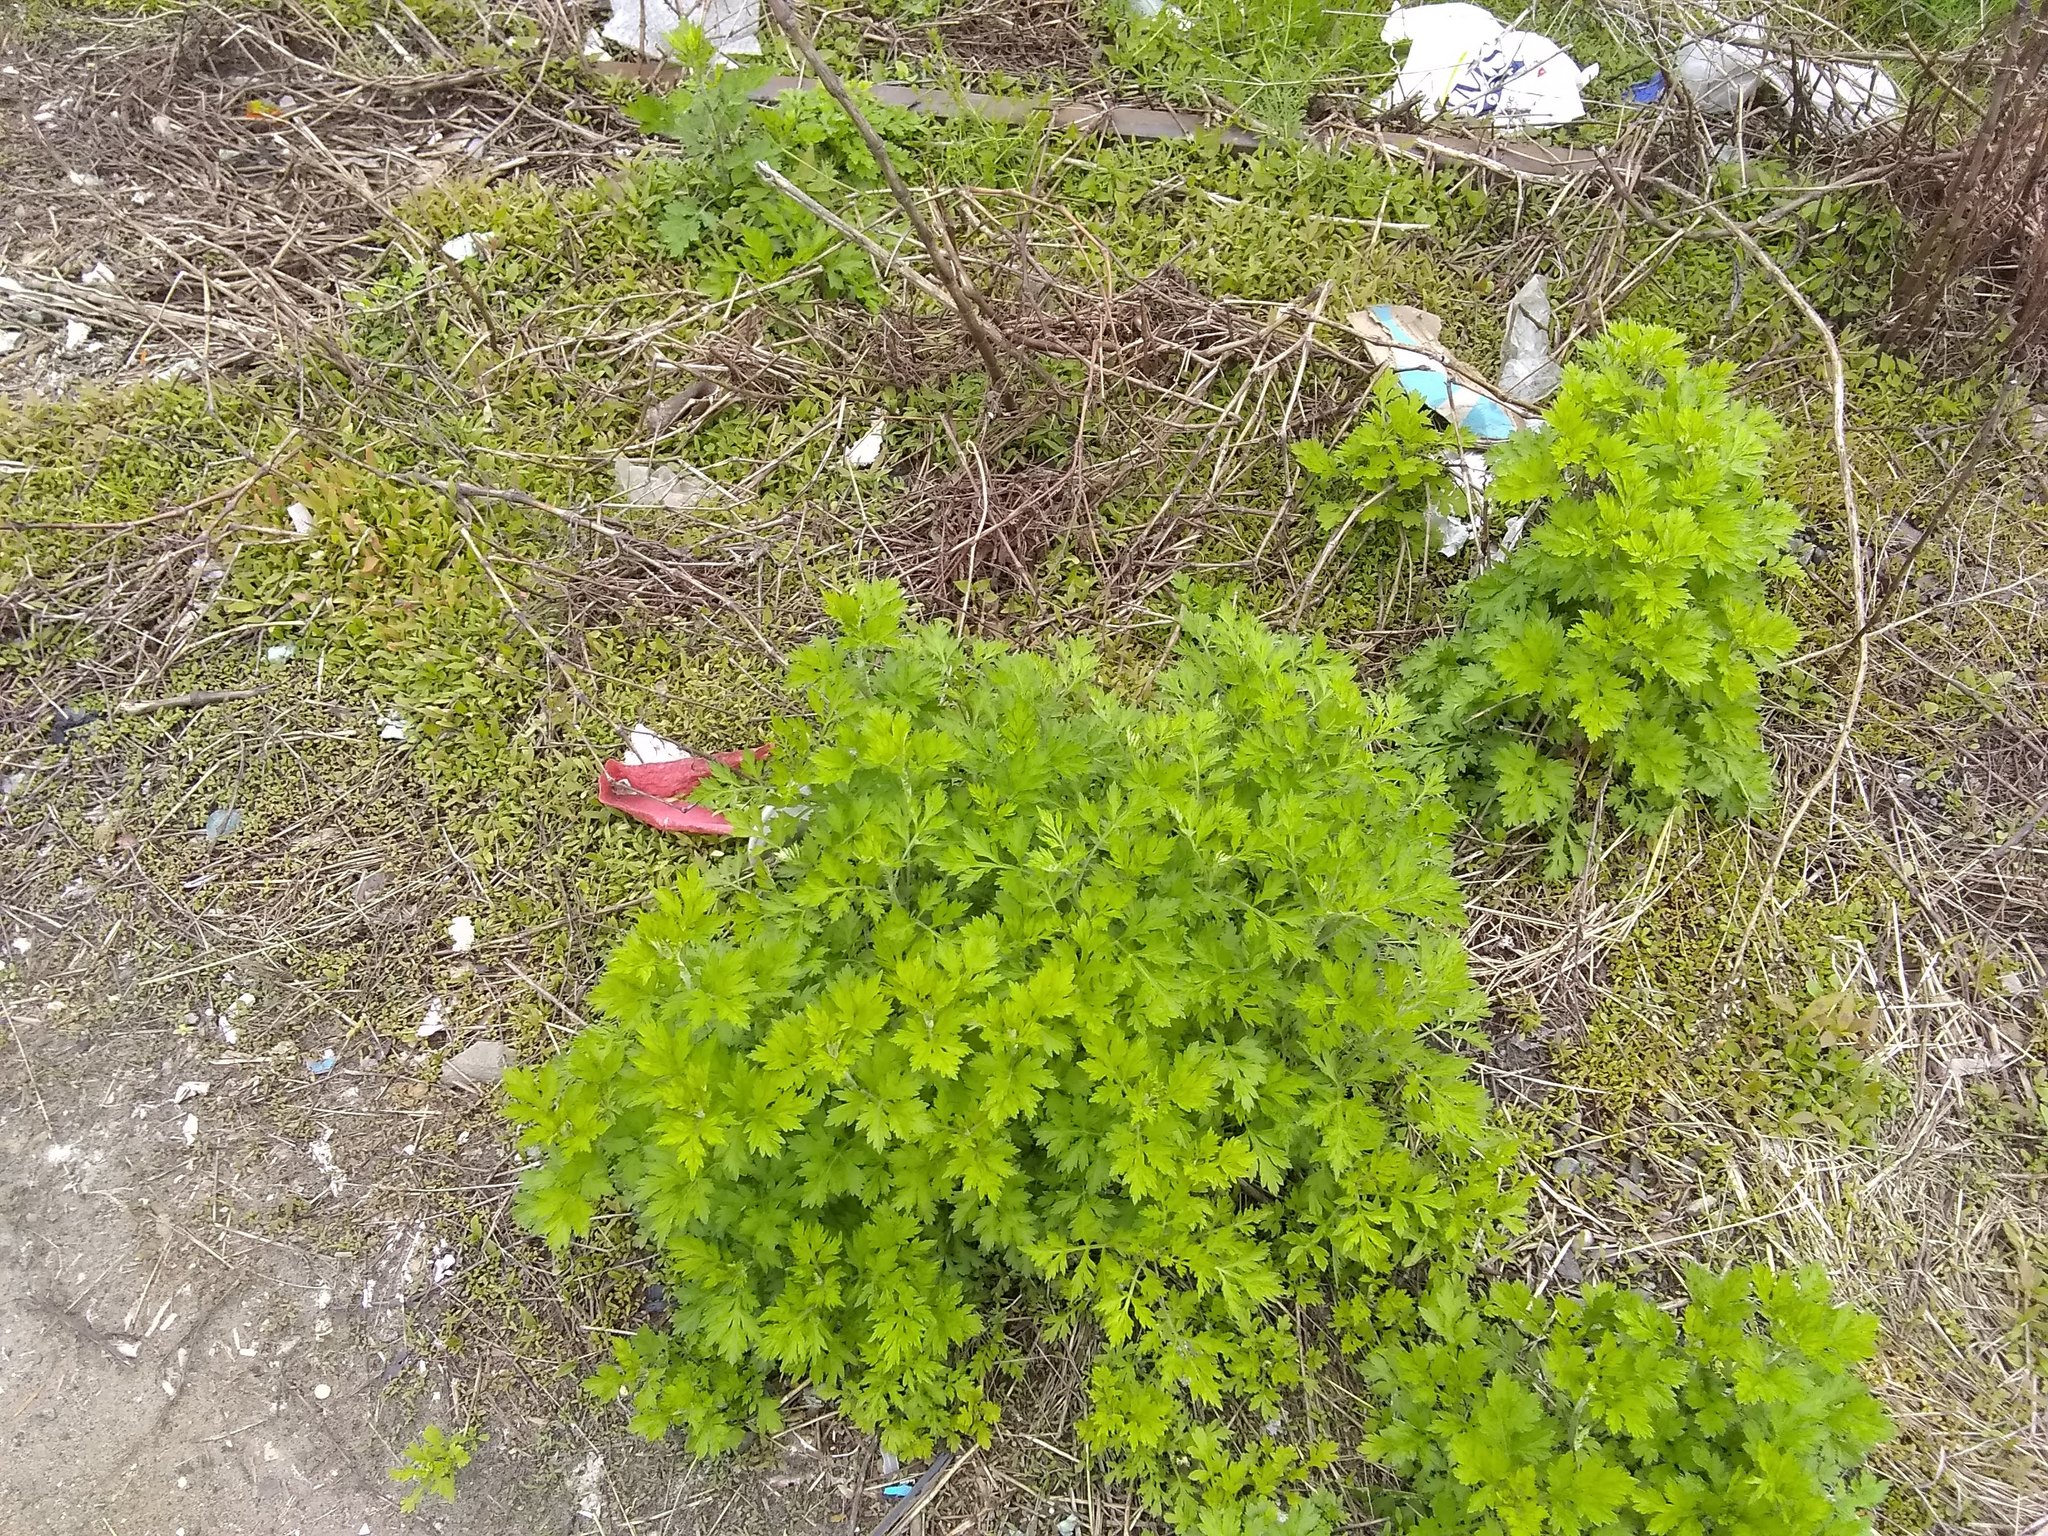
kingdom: Plantae
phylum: Tracheophyta
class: Magnoliopsida
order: Asterales
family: Asteraceae
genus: Artemisia
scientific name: Artemisia vulgaris
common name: Mugwort
